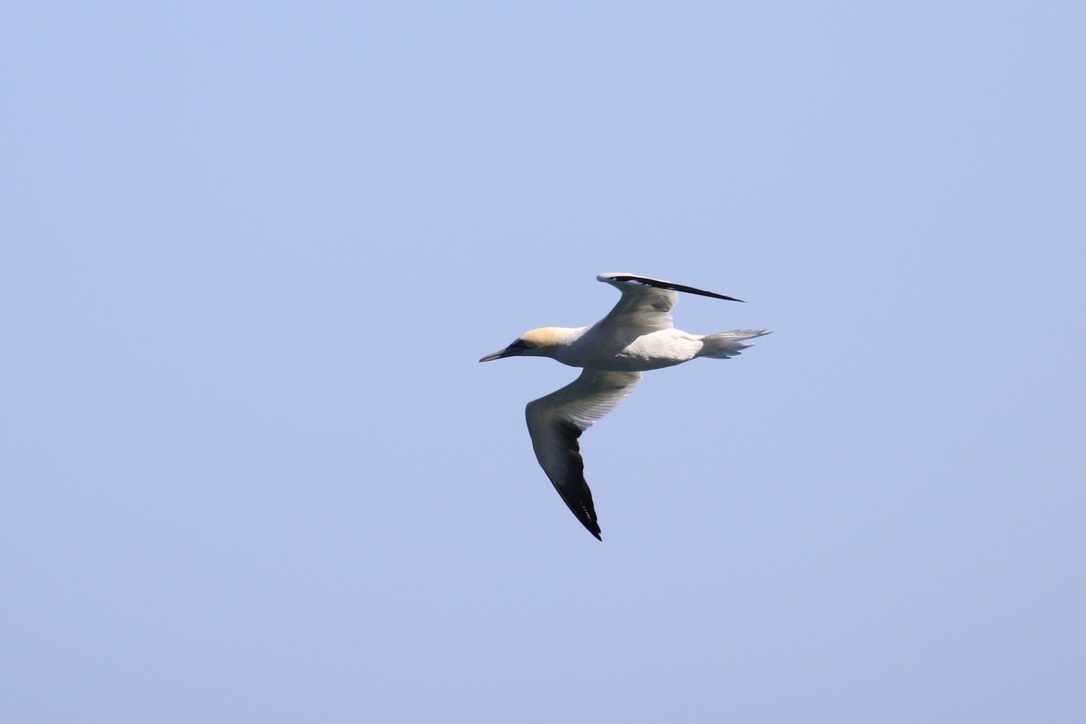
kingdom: Animalia
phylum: Chordata
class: Aves
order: Suliformes
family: Sulidae
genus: Morus
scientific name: Morus bassanus
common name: Northern gannet
